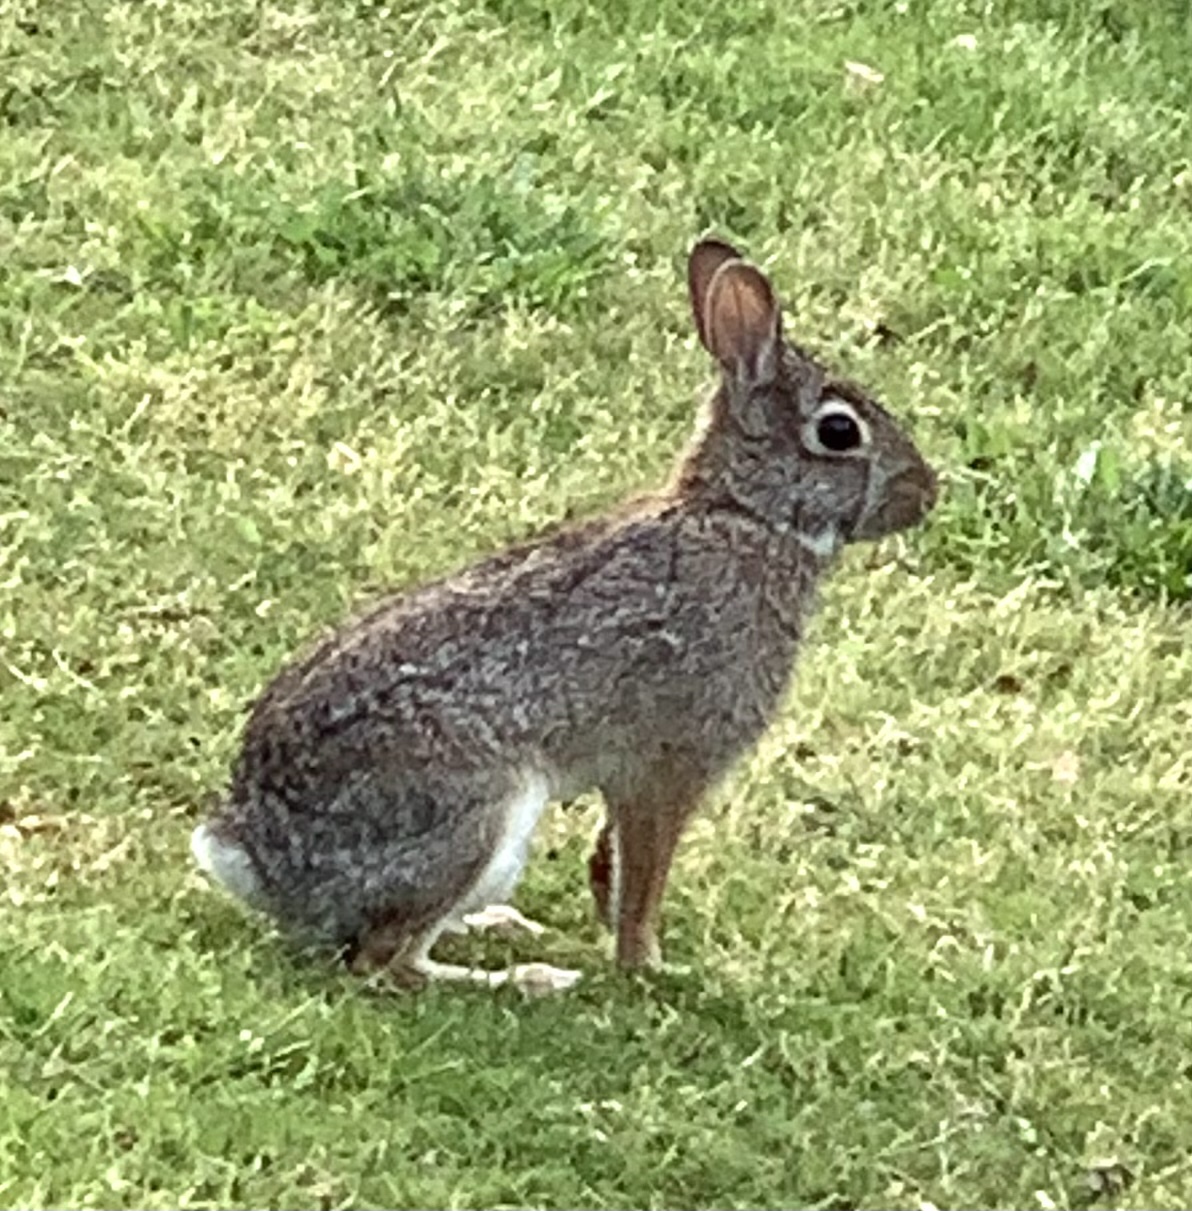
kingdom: Animalia
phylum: Chordata
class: Mammalia
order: Lagomorpha
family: Leporidae
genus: Sylvilagus
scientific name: Sylvilagus floridanus
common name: Eastern cottontail
